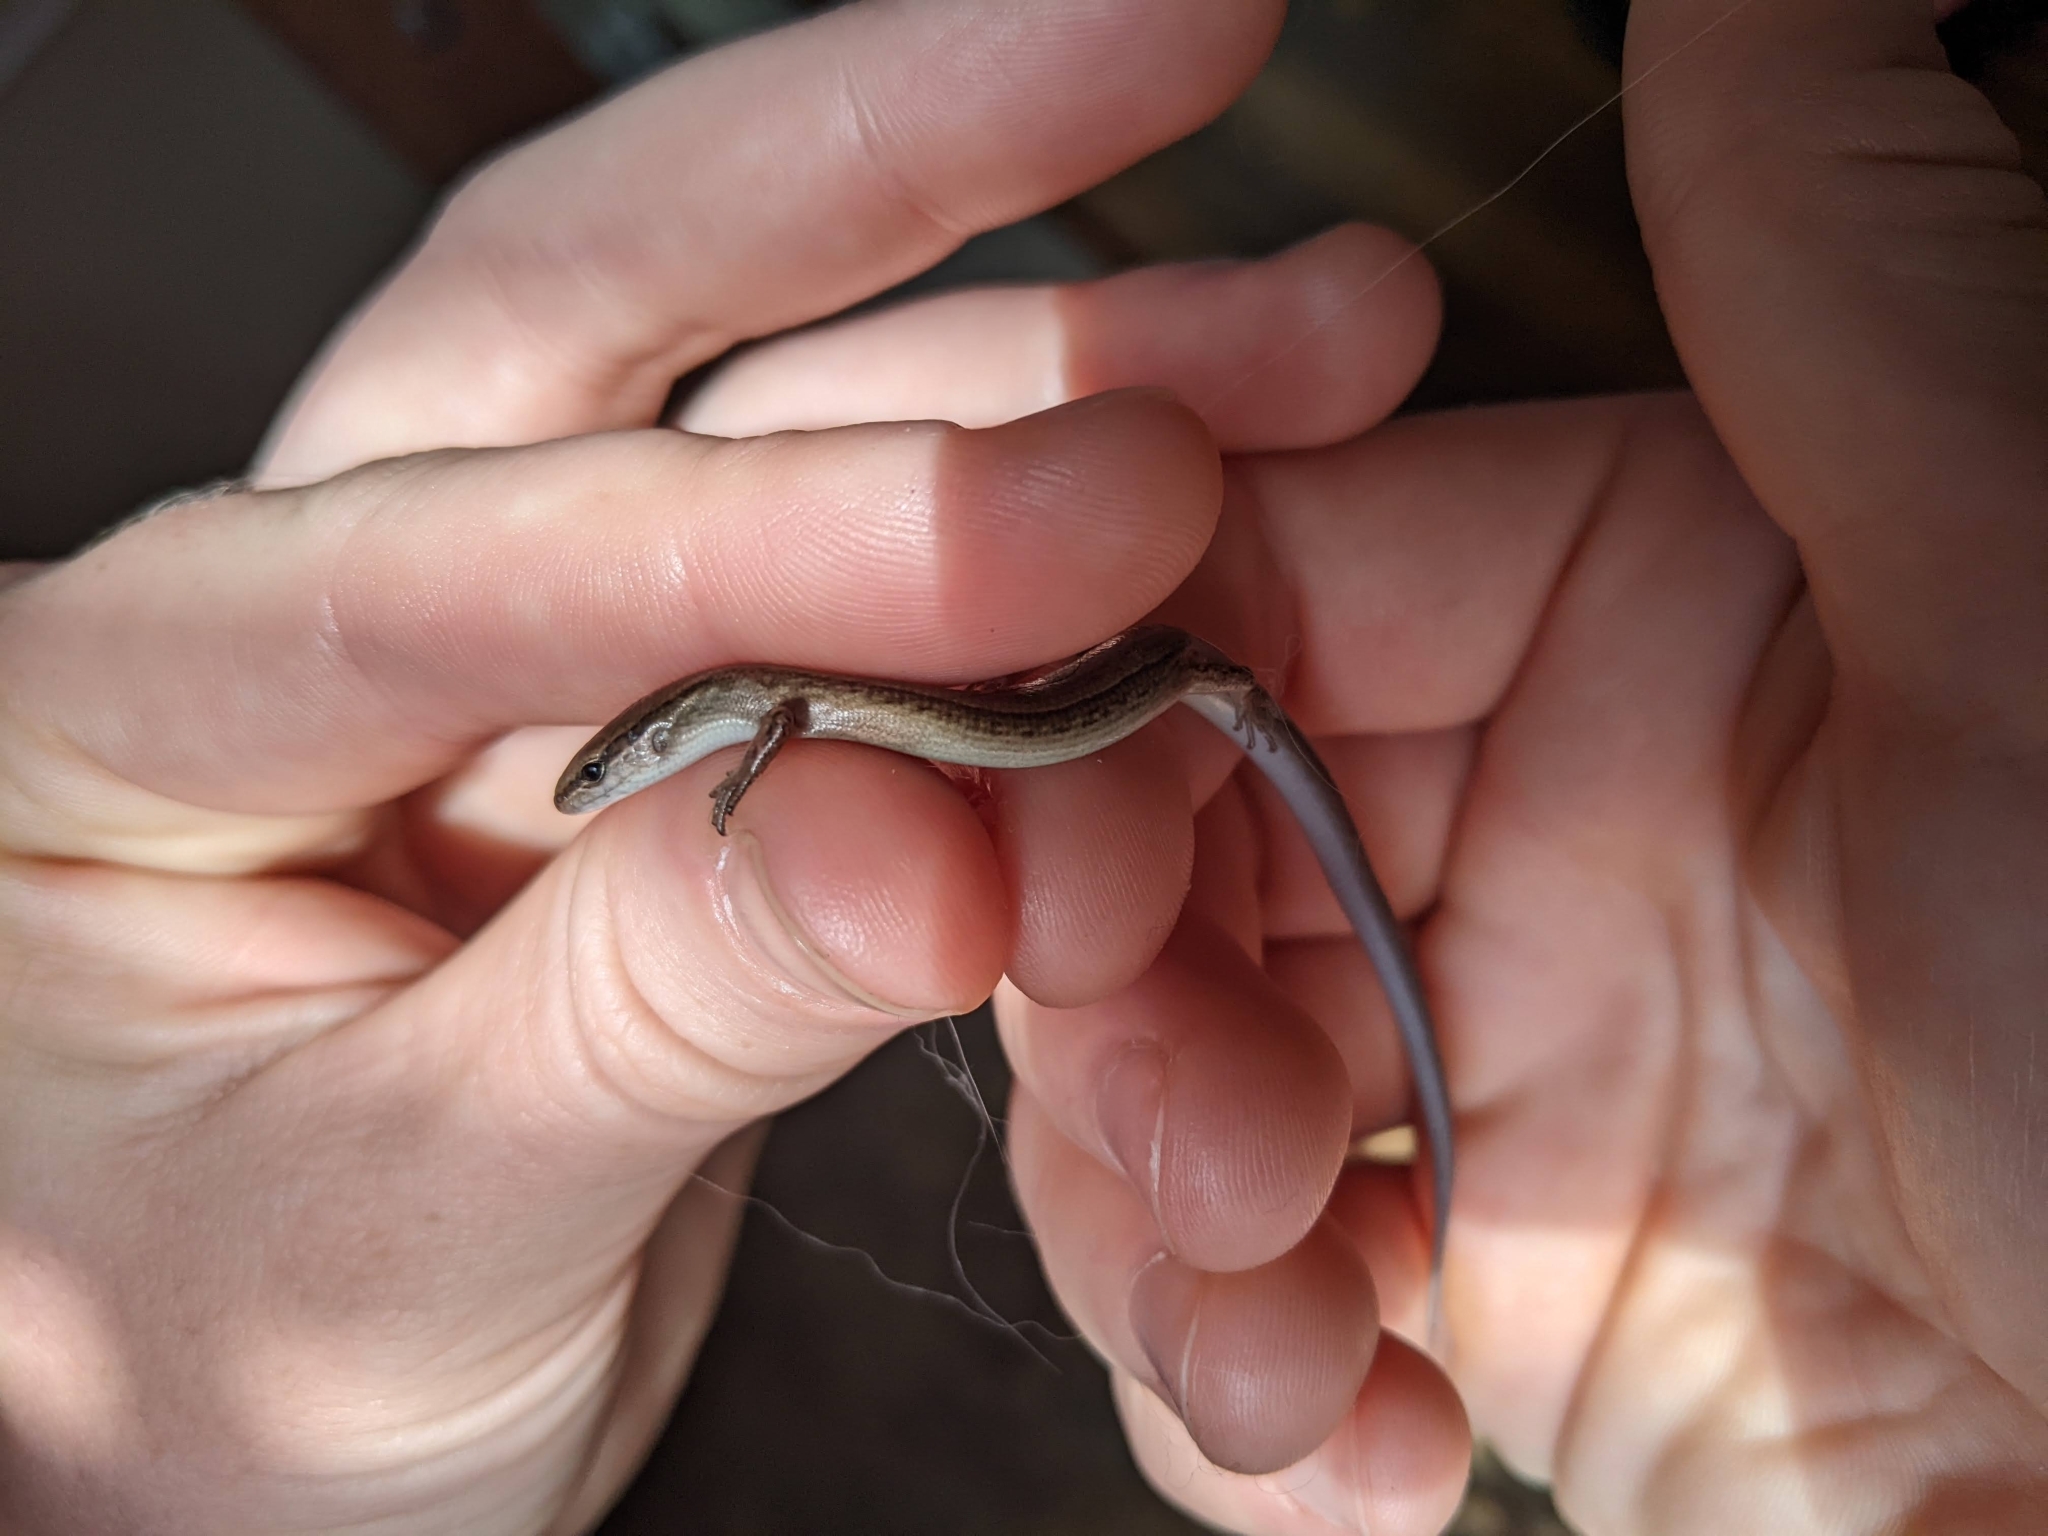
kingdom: Animalia
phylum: Chordata
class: Squamata
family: Scincidae
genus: Scincella
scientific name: Scincella lateralis
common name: Ground skink
